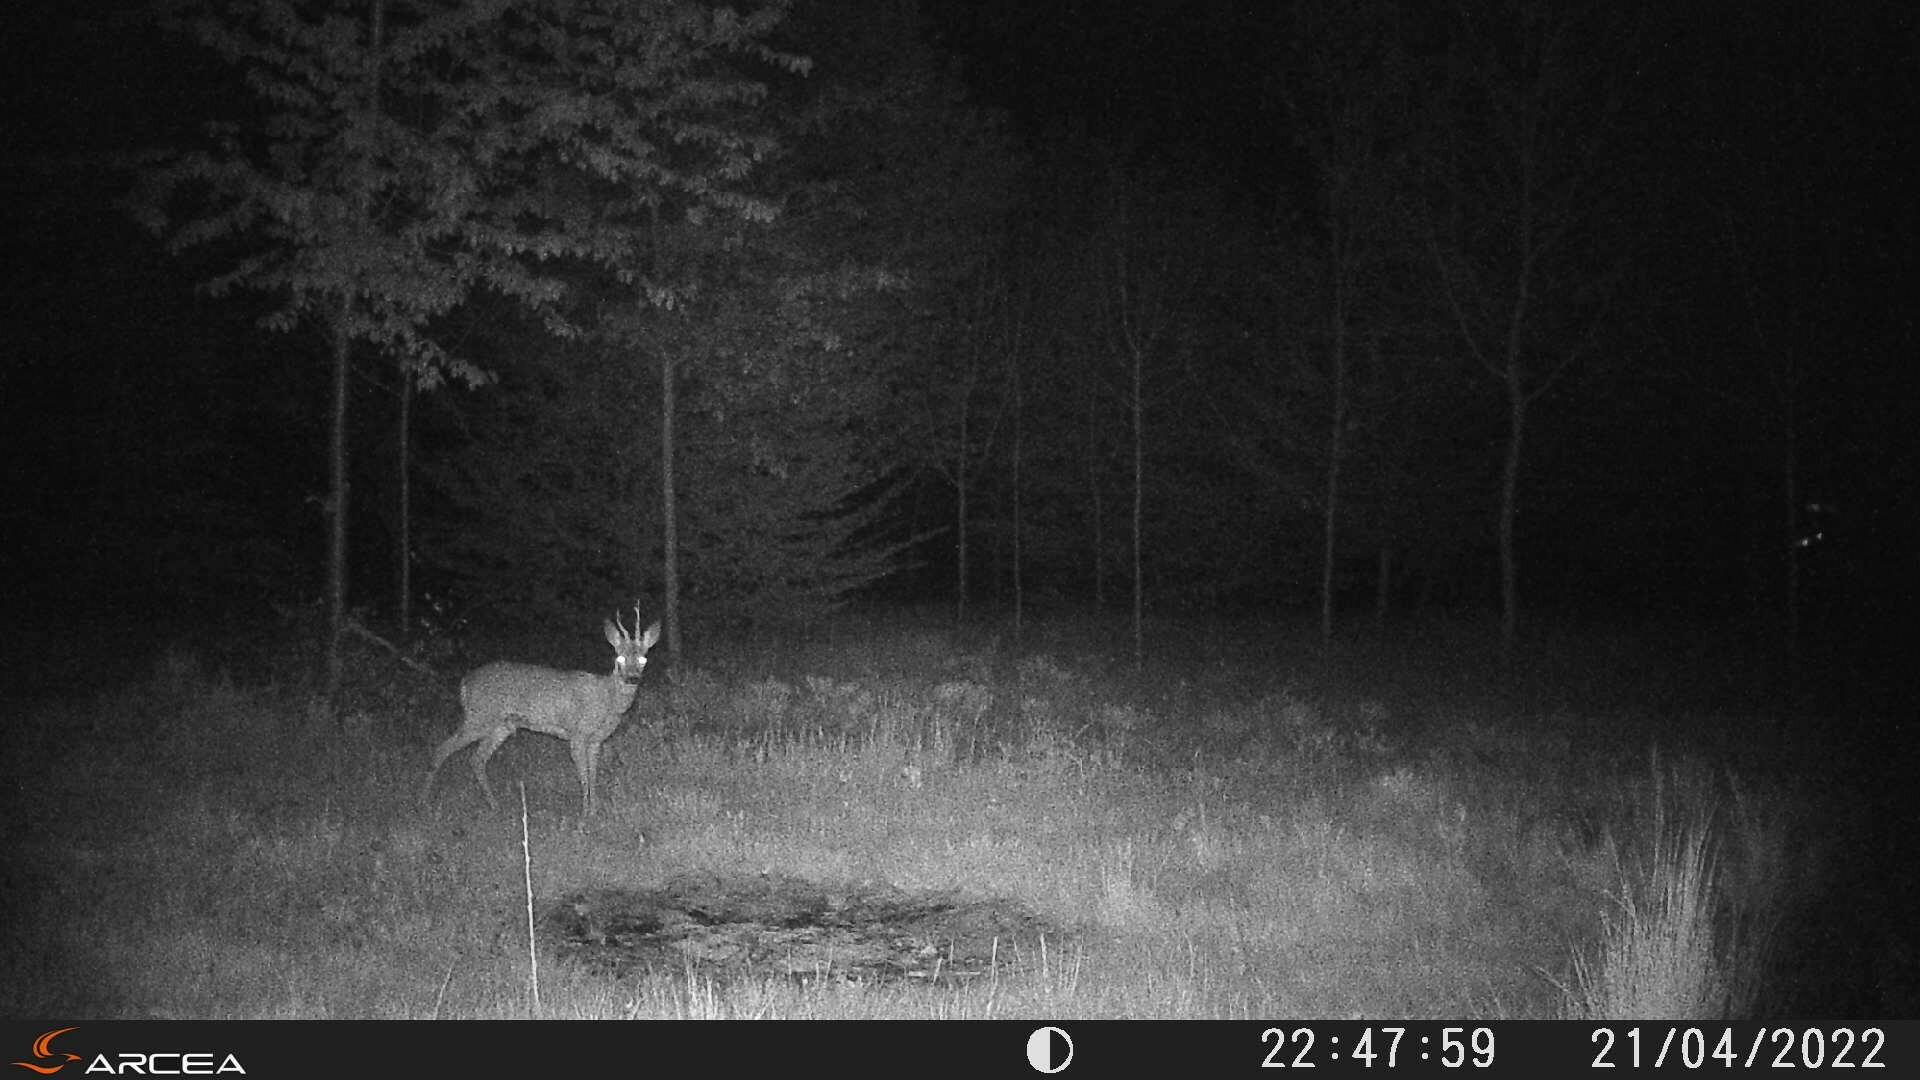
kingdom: Animalia
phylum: Chordata
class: Mammalia
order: Artiodactyla
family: Cervidae
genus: Capreolus
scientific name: Capreolus capreolus
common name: Western roe deer
